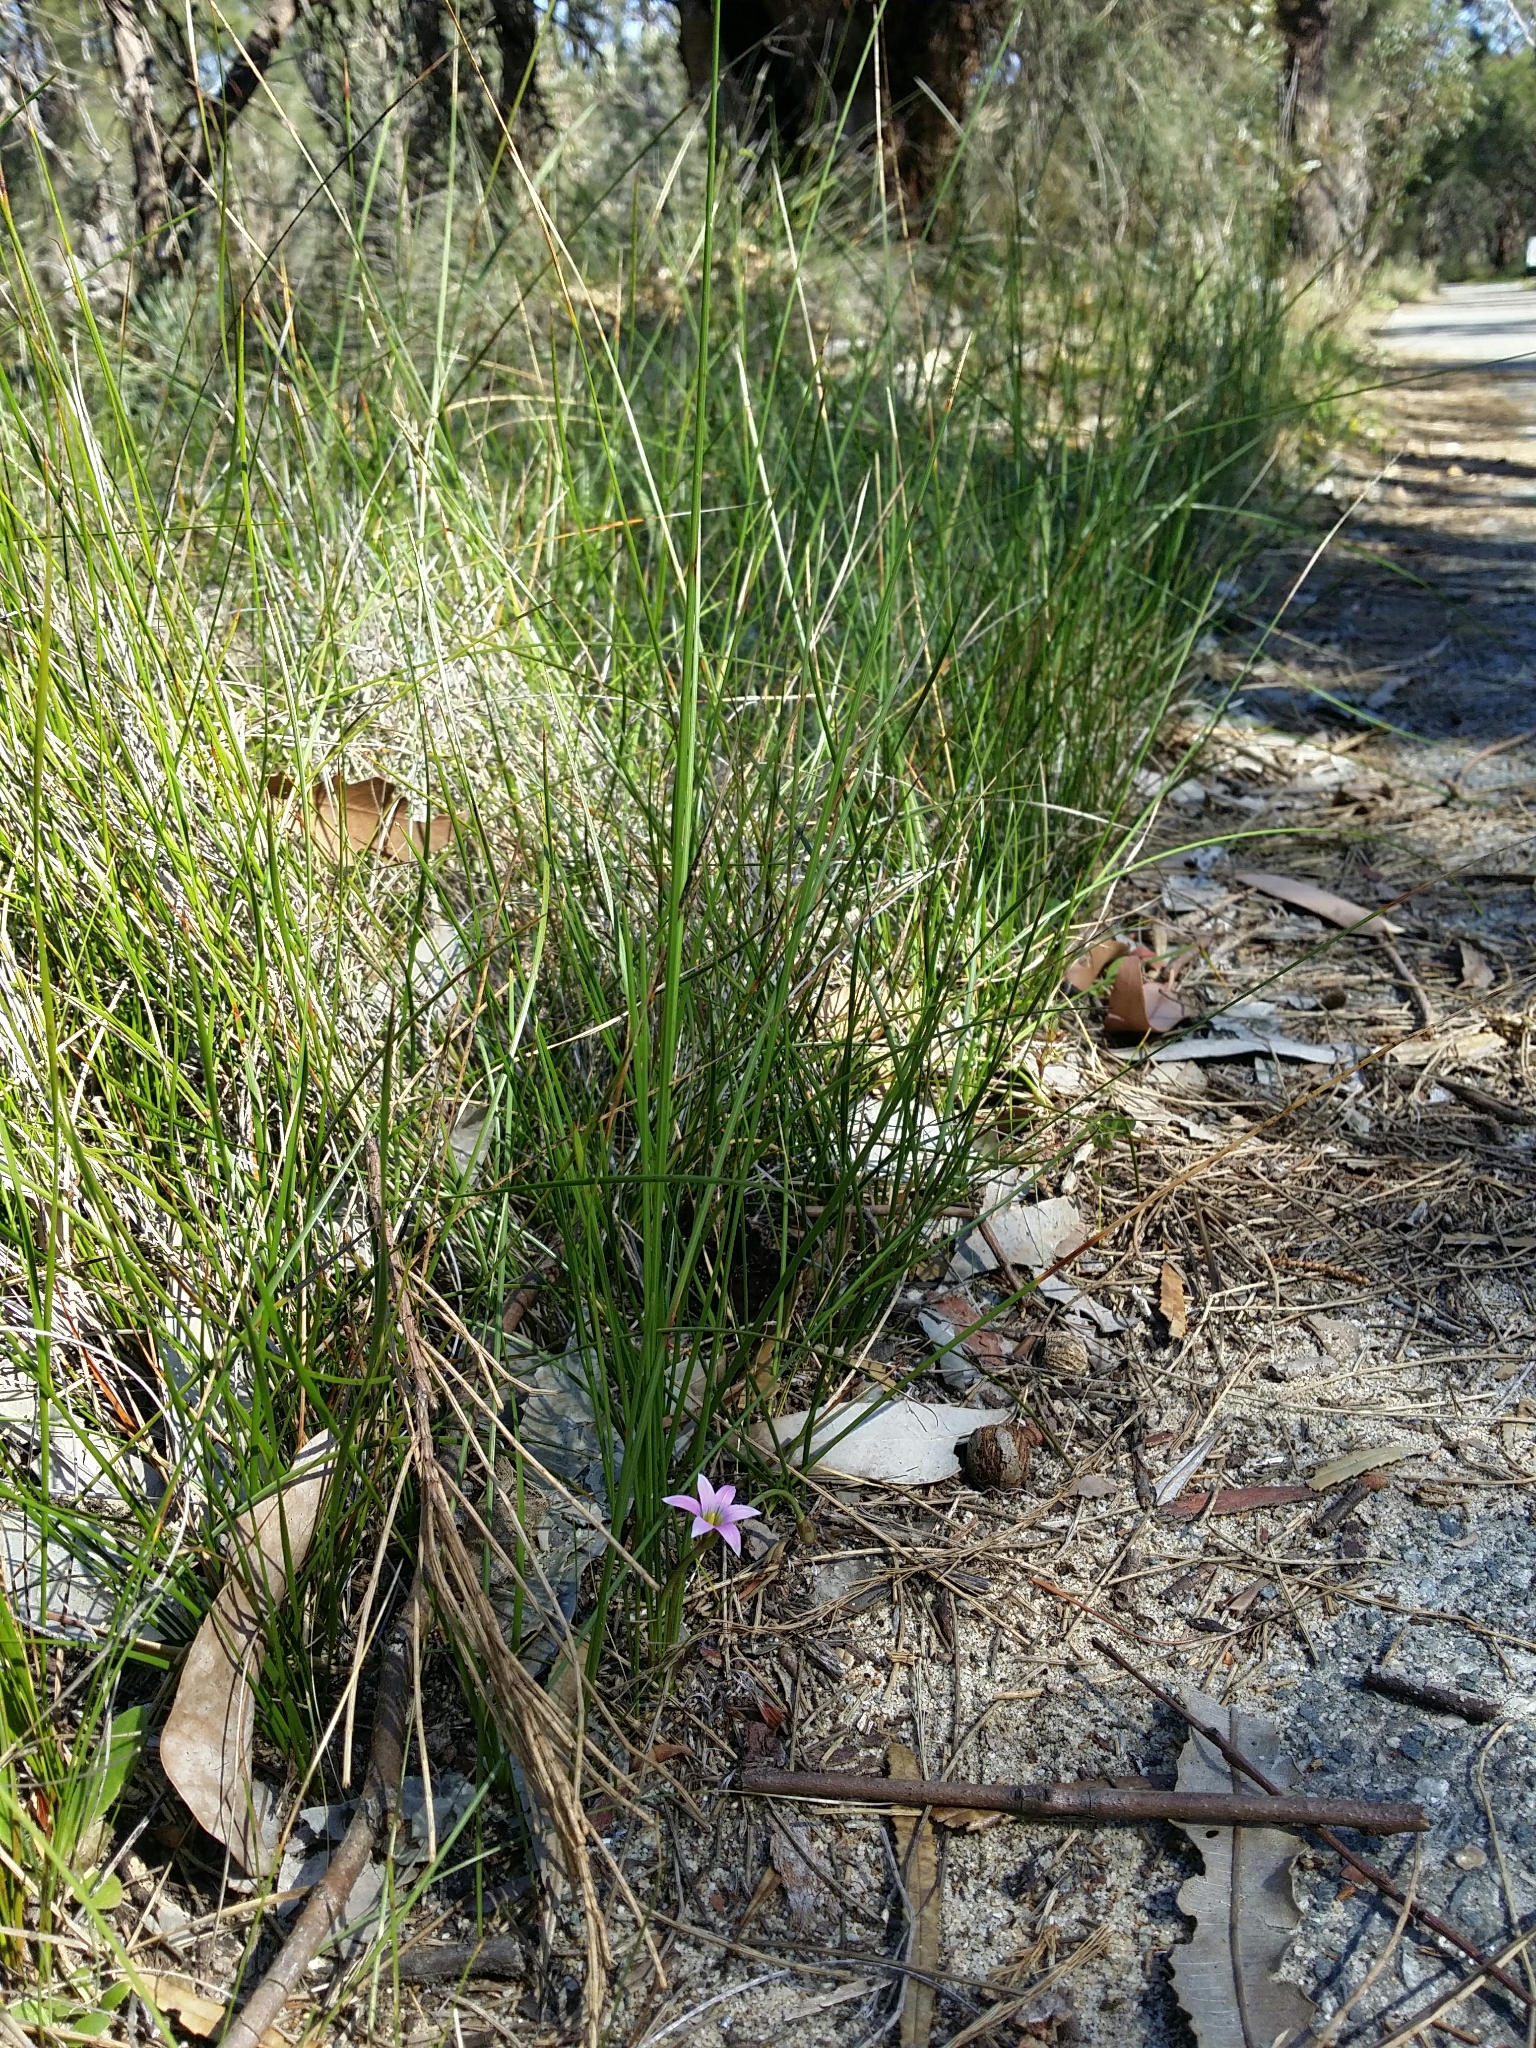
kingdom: Plantae
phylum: Tracheophyta
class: Liliopsida
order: Asparagales
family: Iridaceae
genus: Romulea
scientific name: Romulea rosea
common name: Oniongrass
